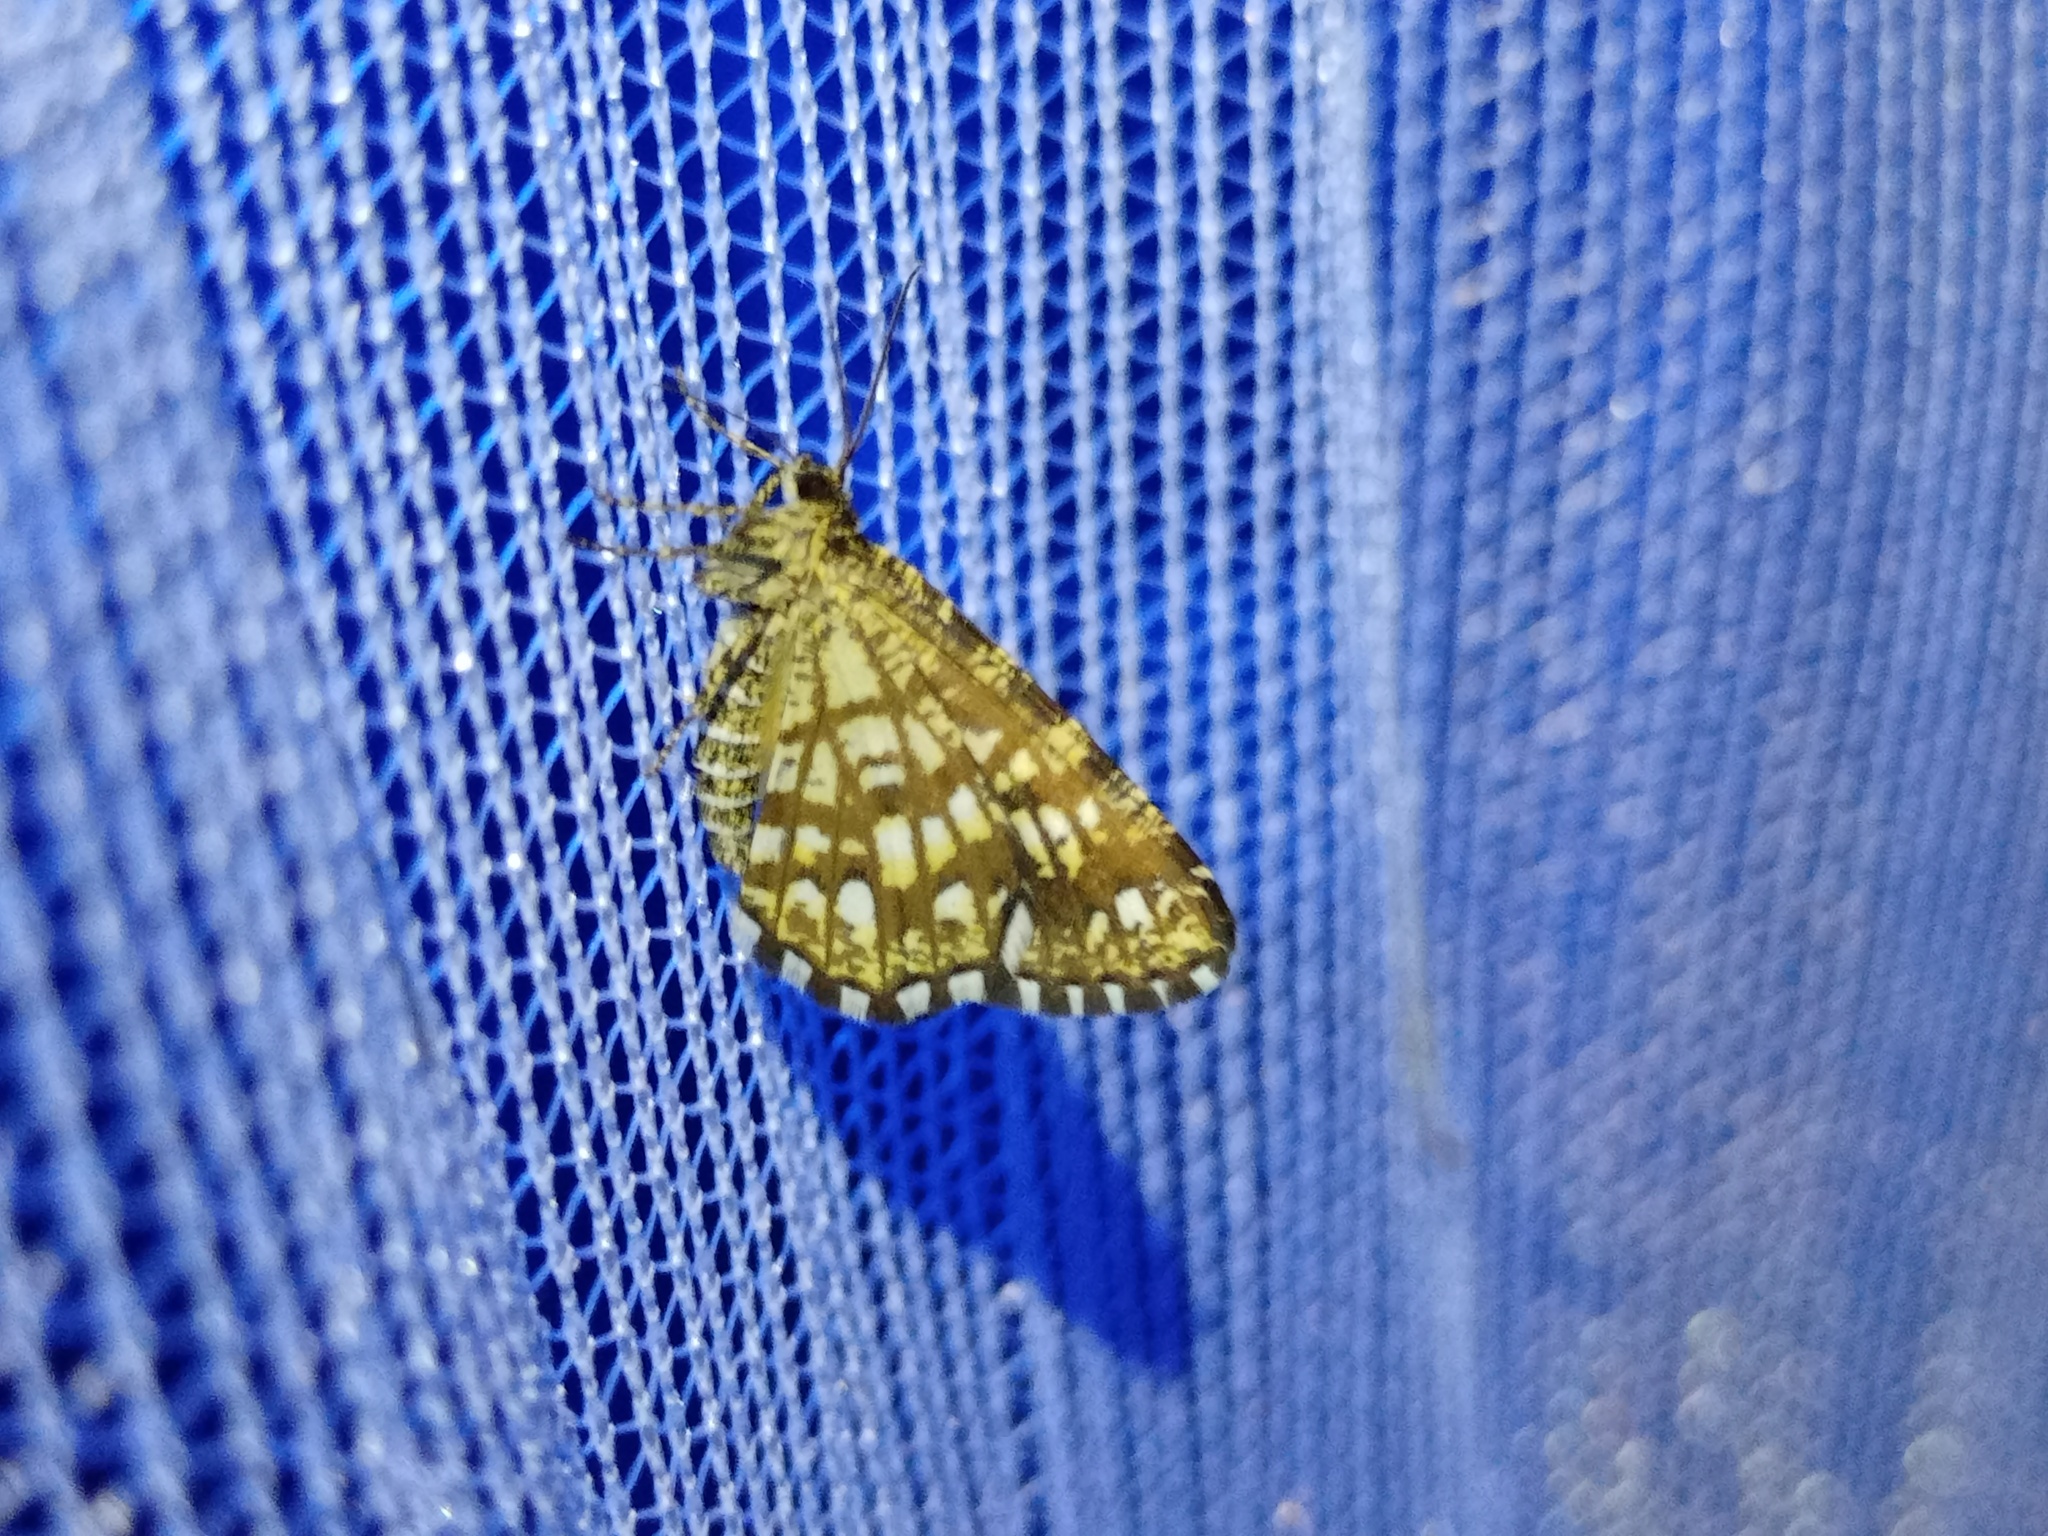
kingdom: Animalia
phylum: Arthropoda
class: Insecta
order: Lepidoptera
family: Geometridae
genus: Chiasmia
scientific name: Chiasmia clathrata
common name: Latticed heath
